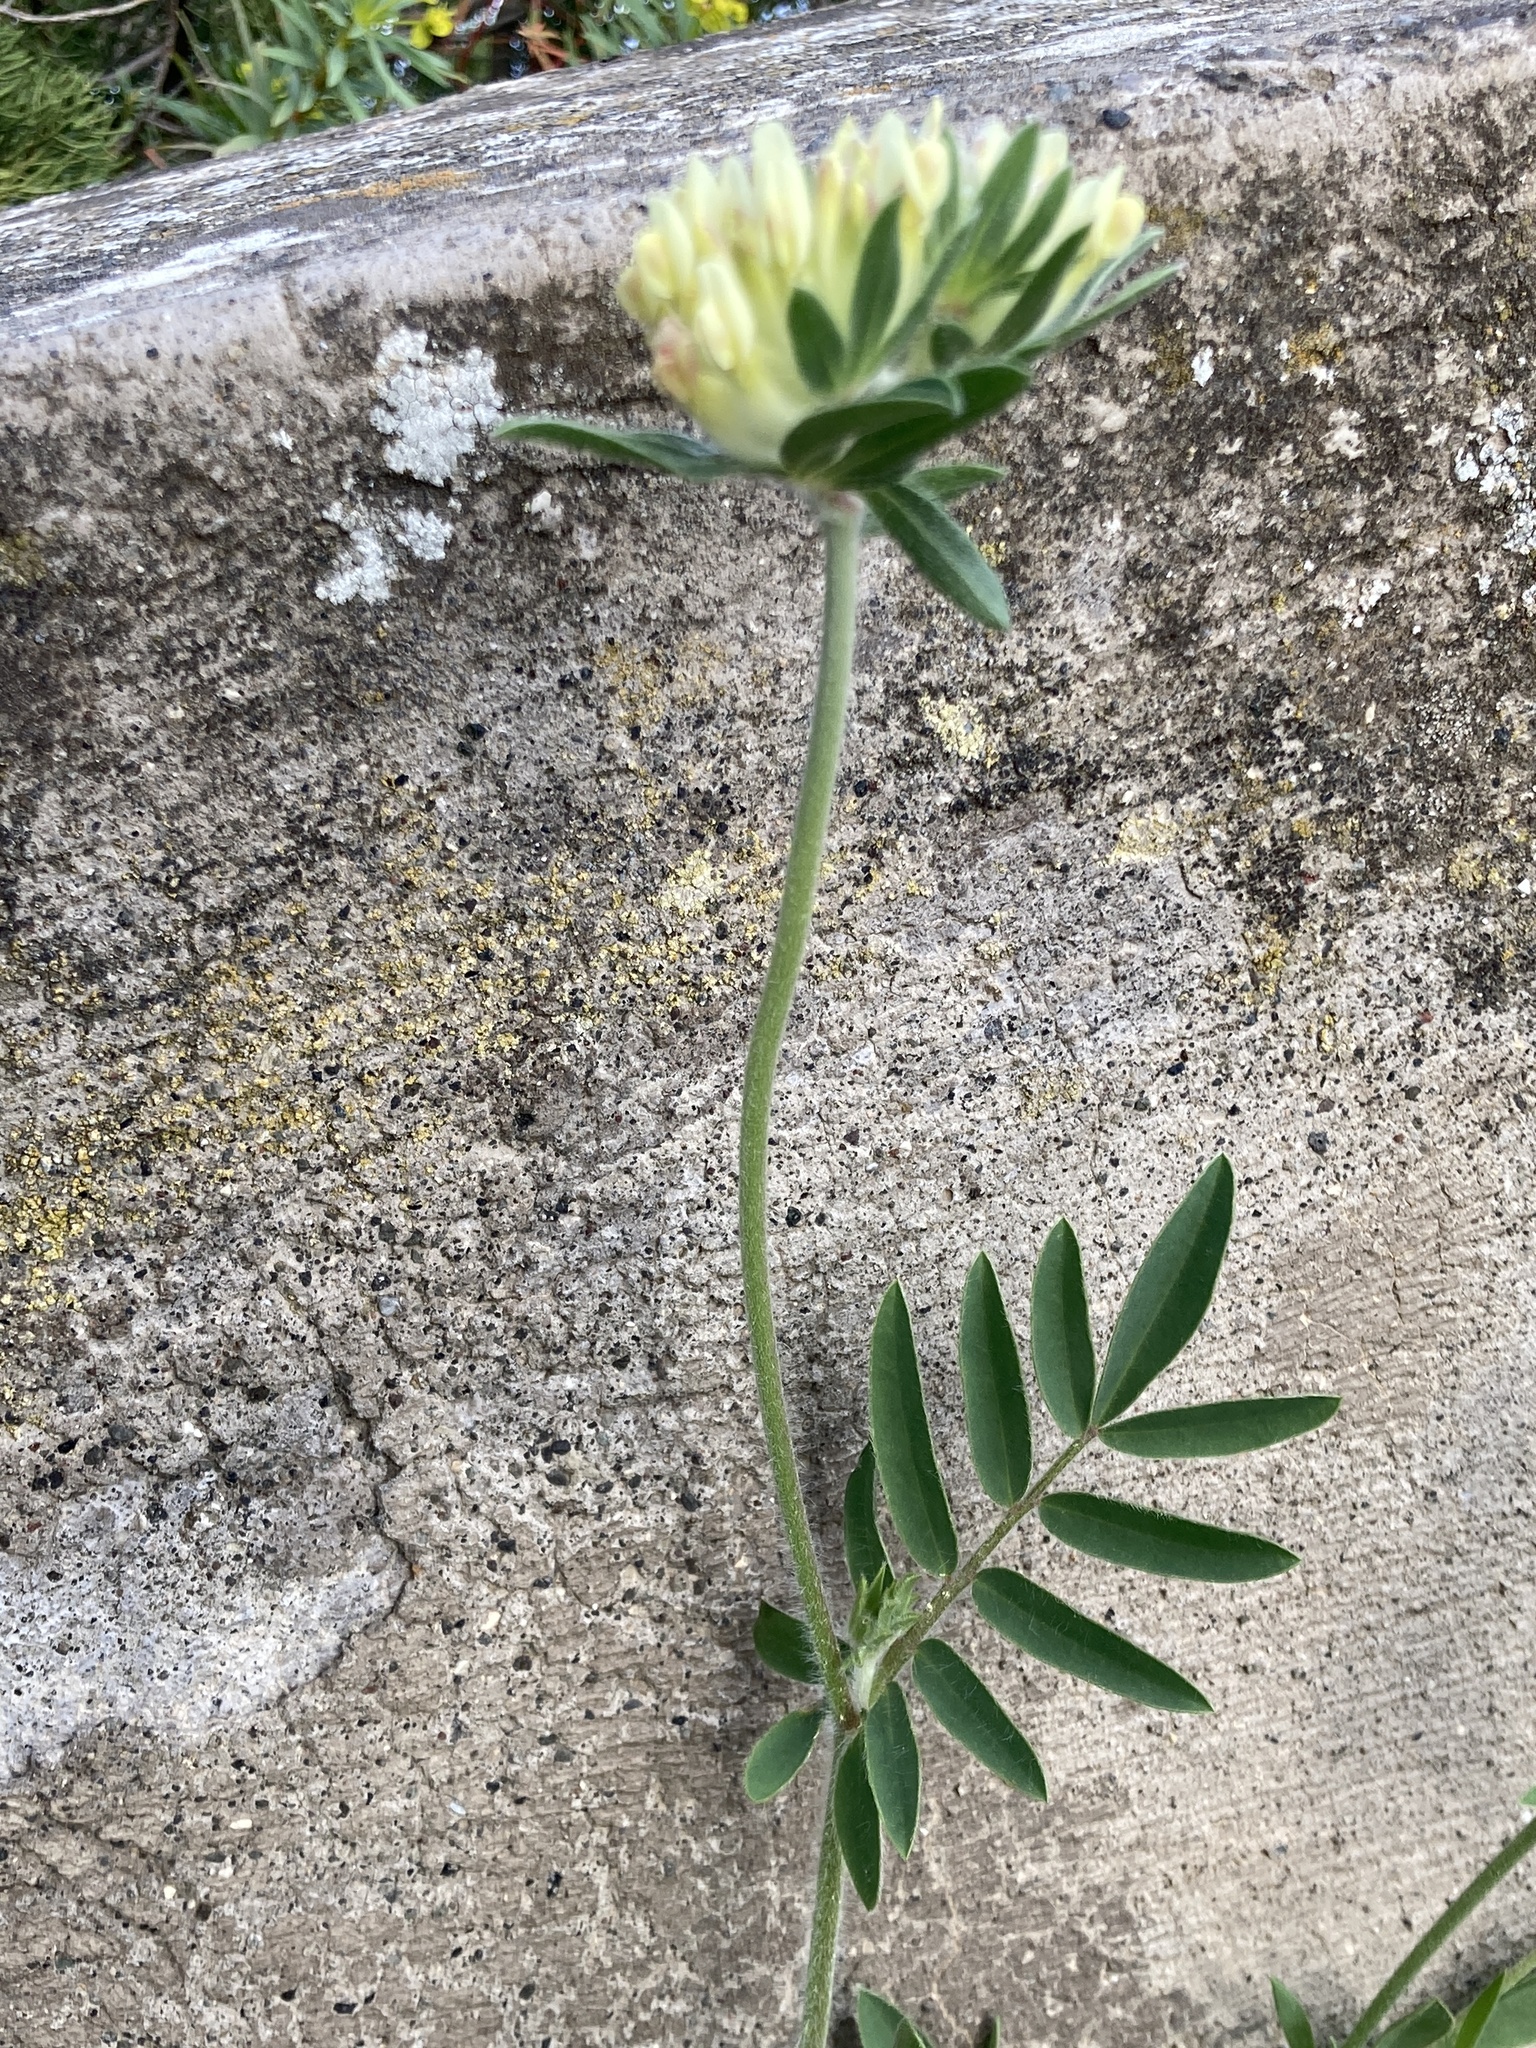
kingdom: Plantae
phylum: Tracheophyta
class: Magnoliopsida
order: Fabales
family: Fabaceae
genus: Anthyllis
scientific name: Anthyllis vulneraria
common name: Kidney vetch
